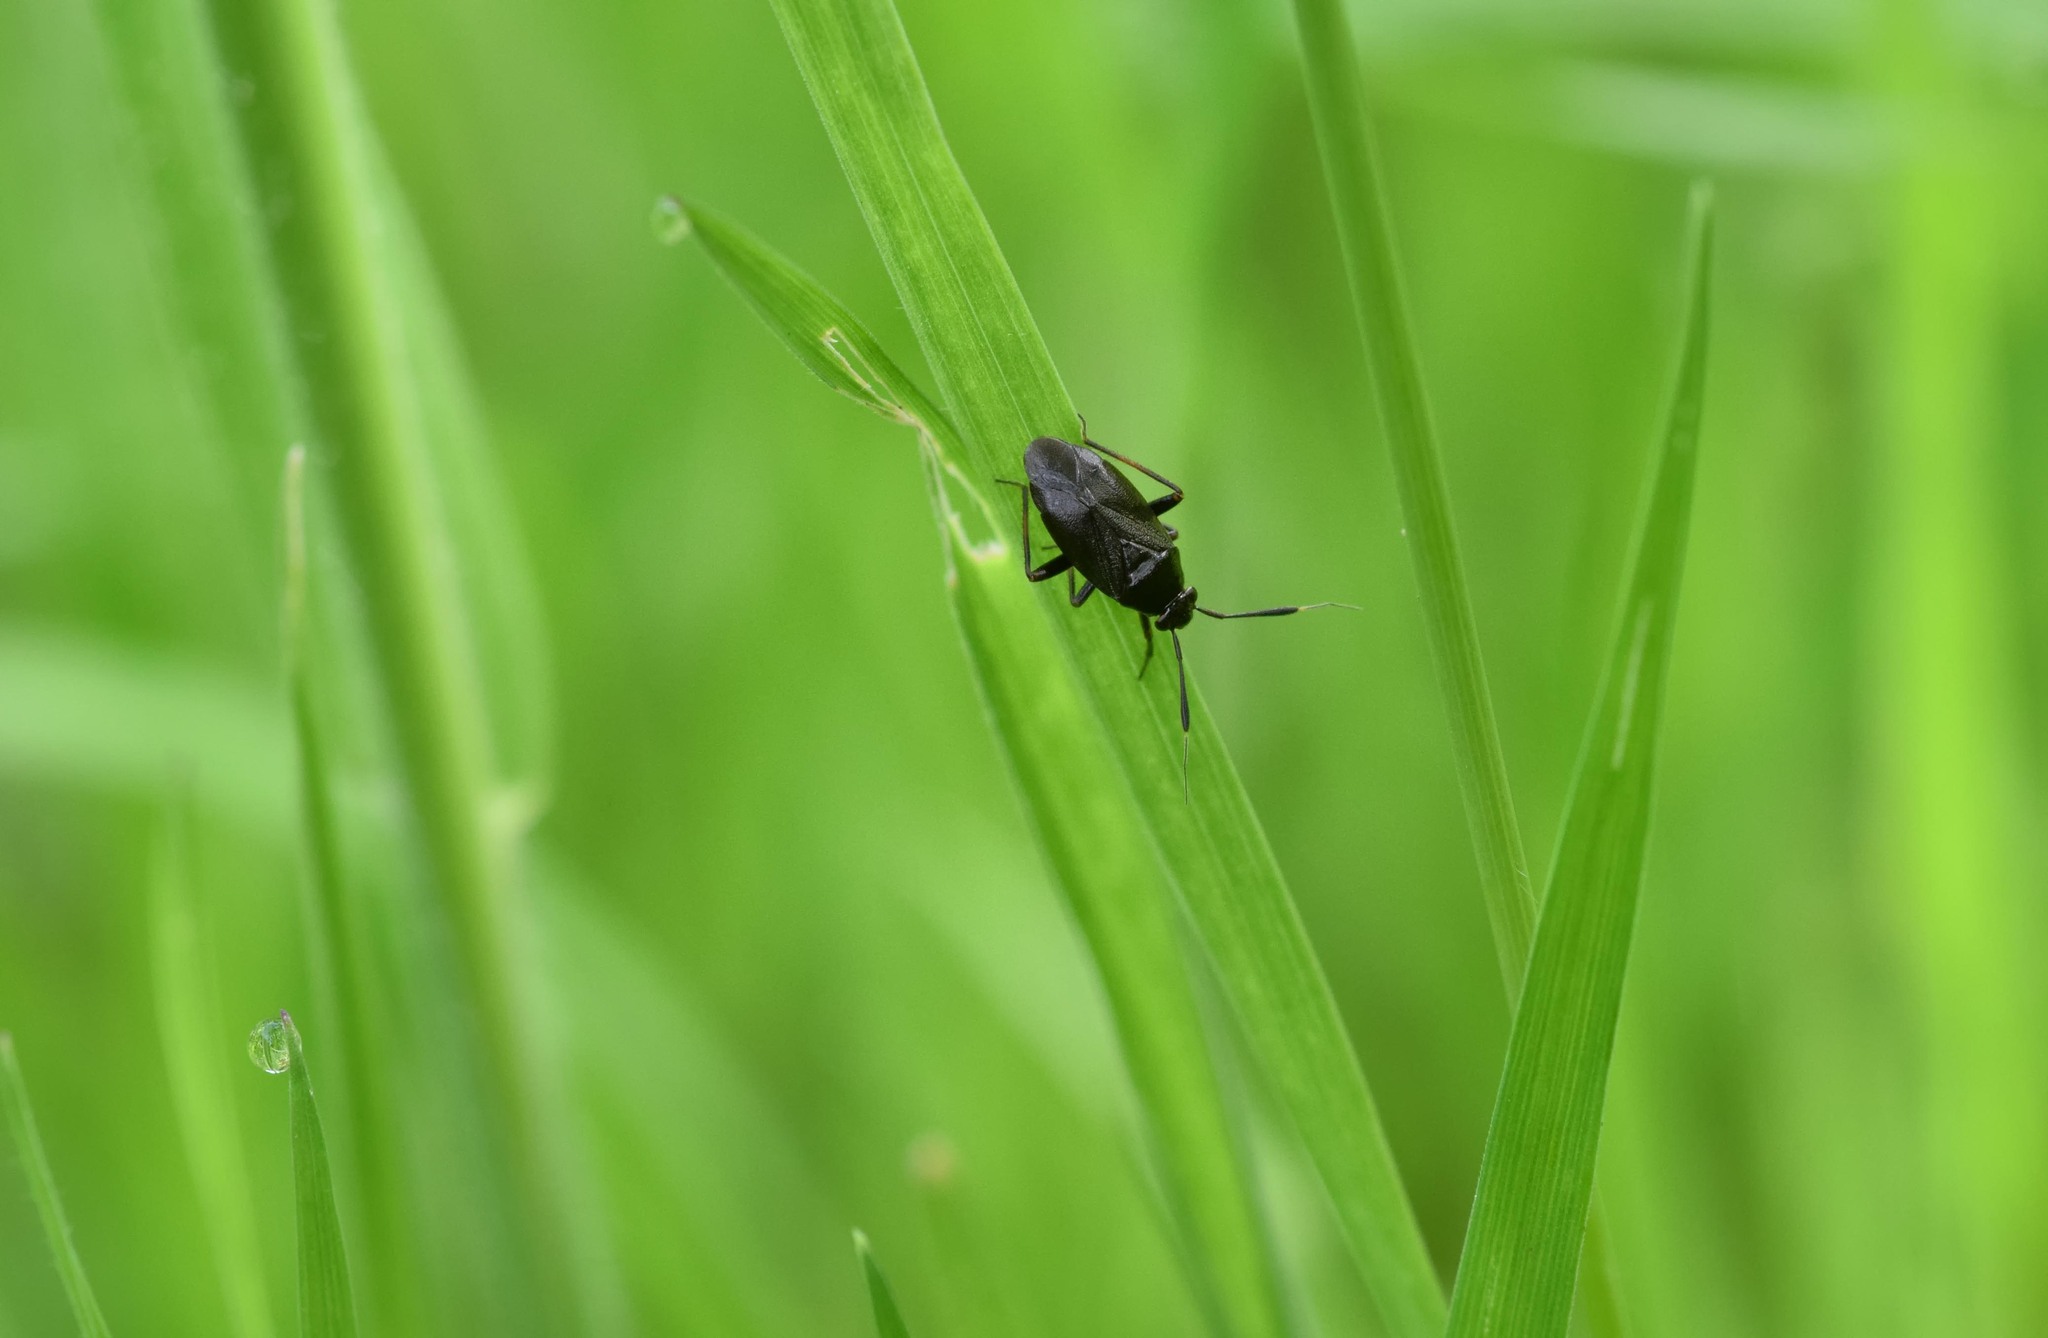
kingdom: Animalia
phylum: Arthropoda
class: Insecta
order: Hemiptera
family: Miridae
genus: Capsus
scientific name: Capsus ater
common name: Black plant bug
